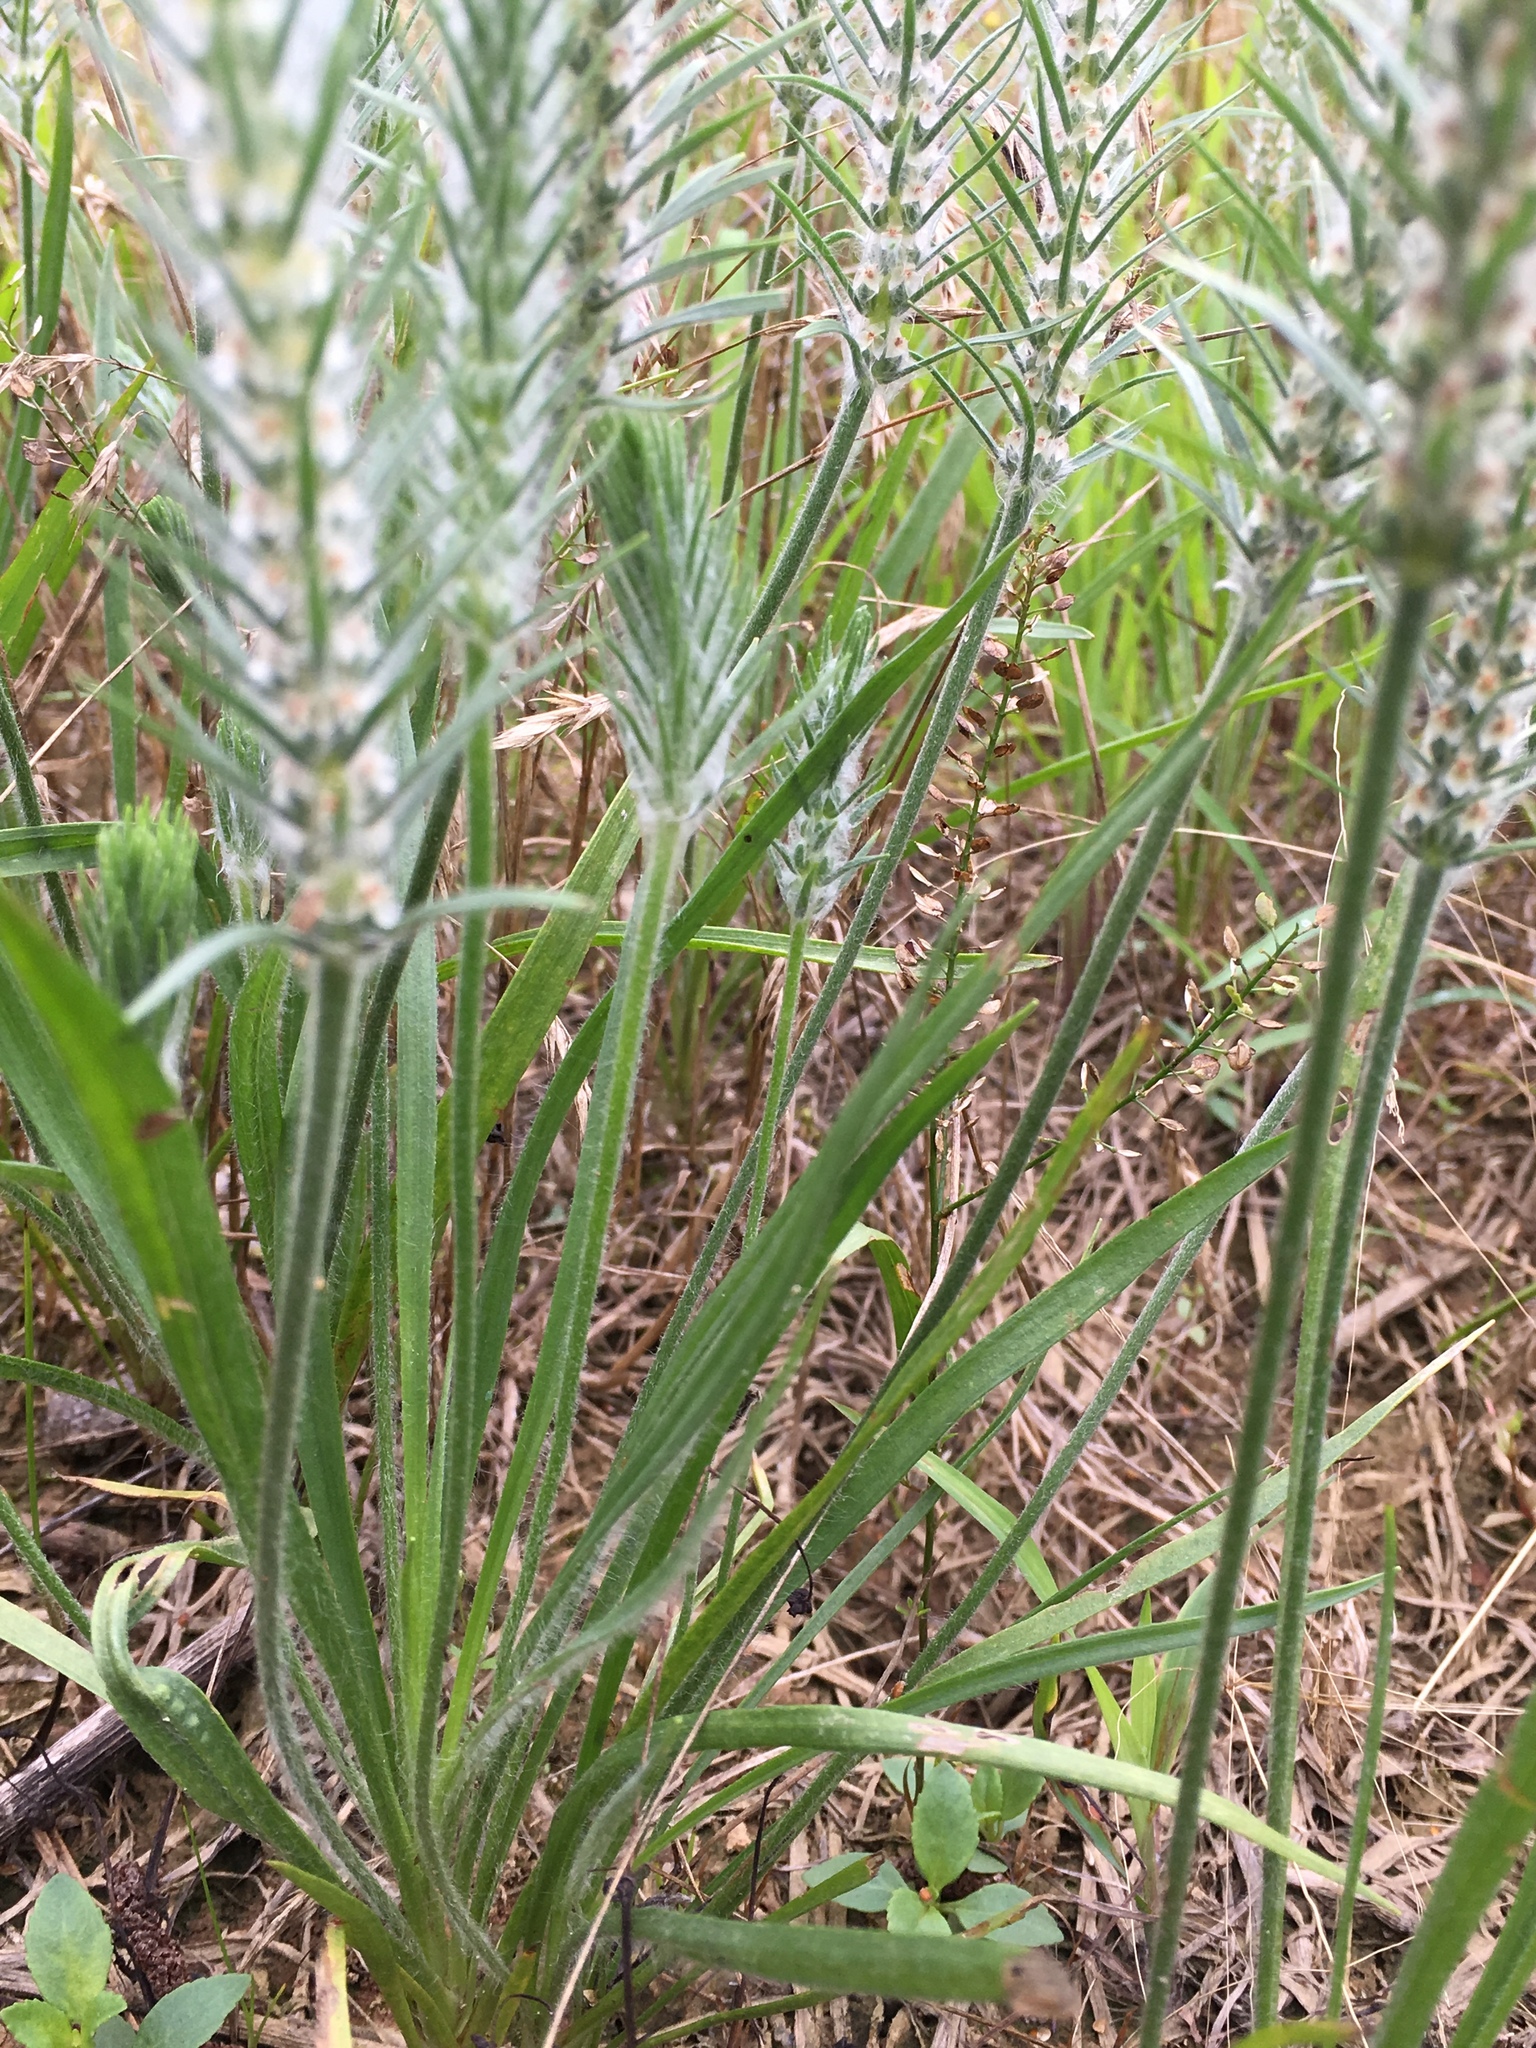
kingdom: Plantae
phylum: Tracheophyta
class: Magnoliopsida
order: Lamiales
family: Plantaginaceae
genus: Plantago
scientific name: Plantago aristata
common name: Bracted plantain
